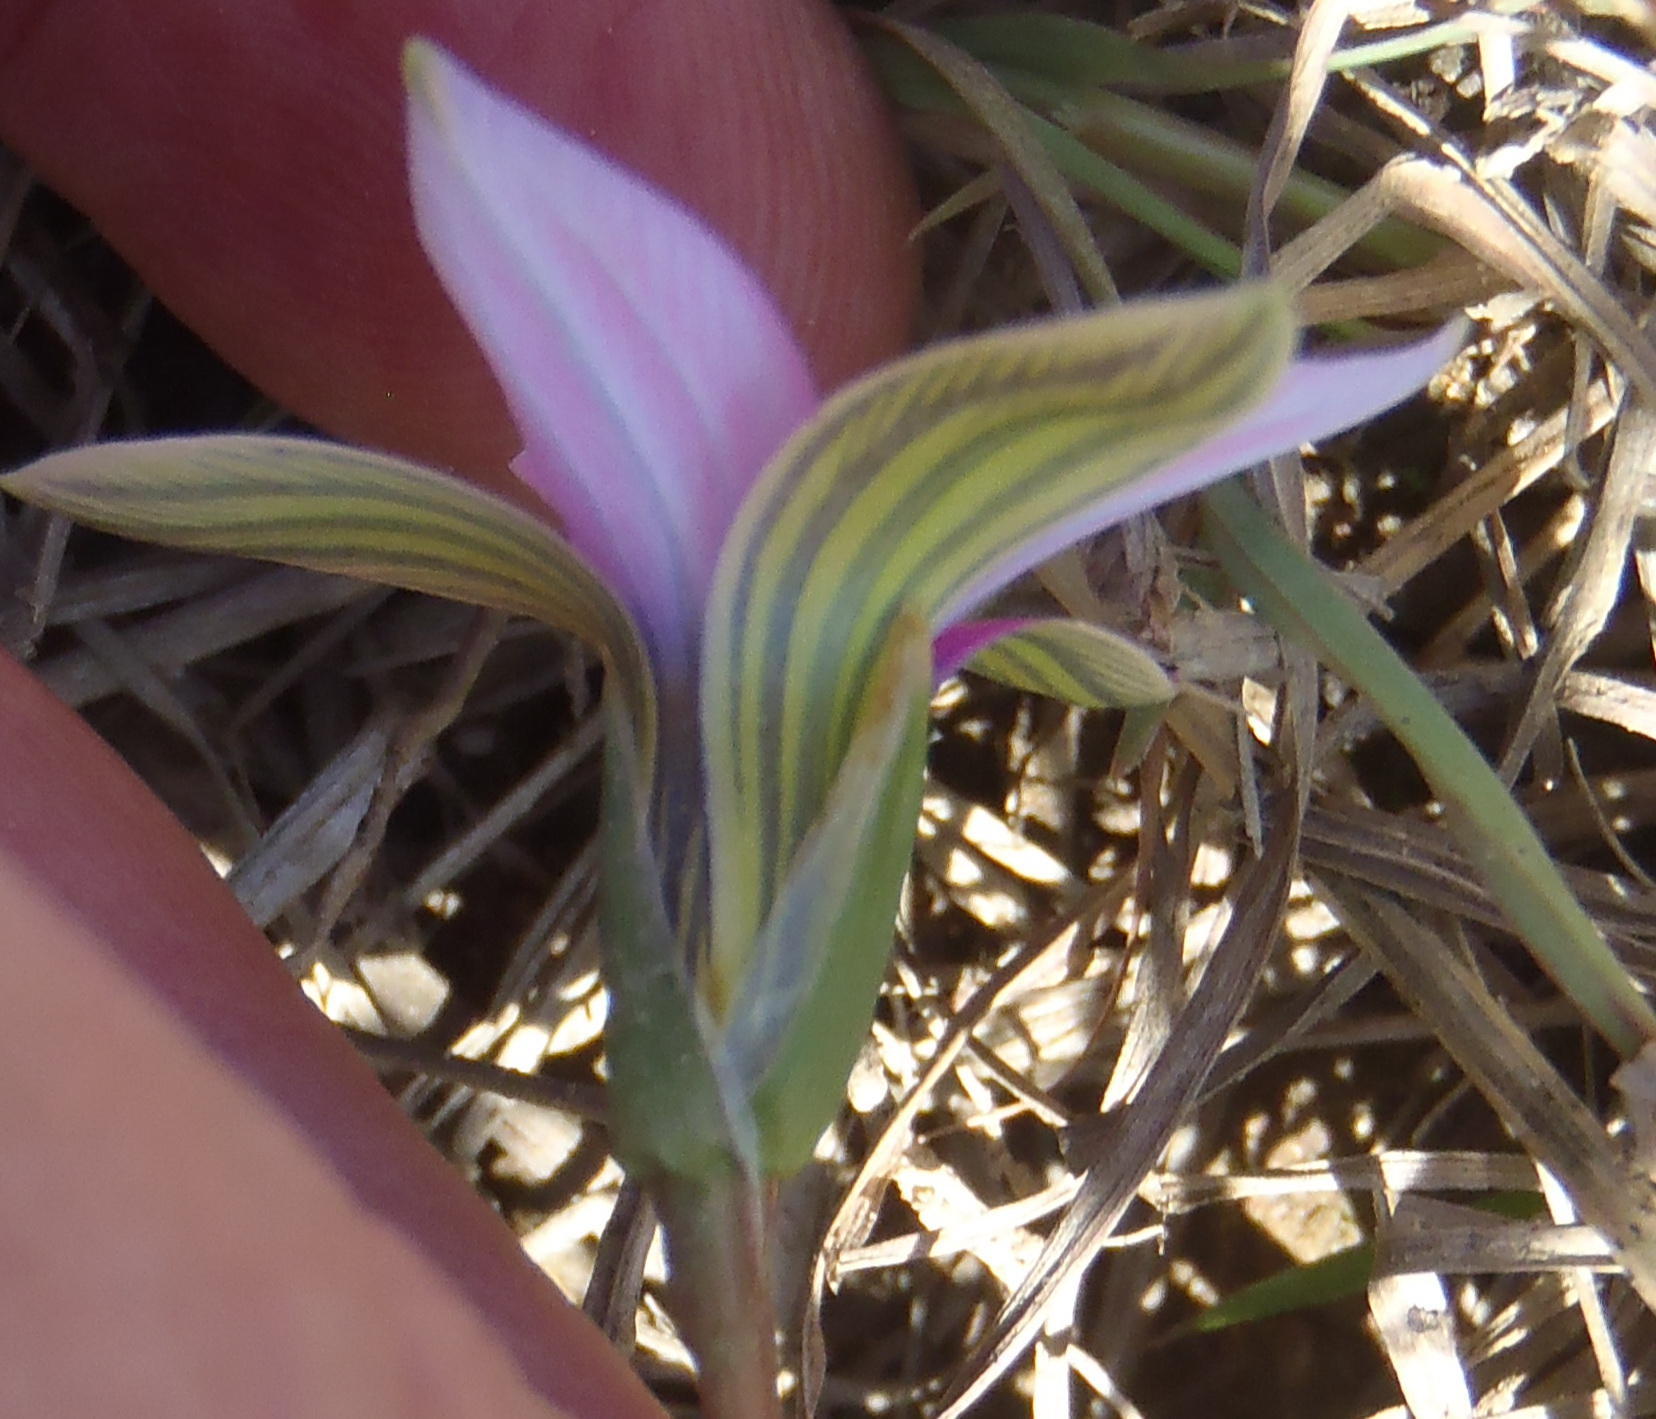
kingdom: Plantae
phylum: Tracheophyta
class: Liliopsida
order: Asparagales
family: Iridaceae
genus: Romulea
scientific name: Romulea rosea
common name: Oniongrass
